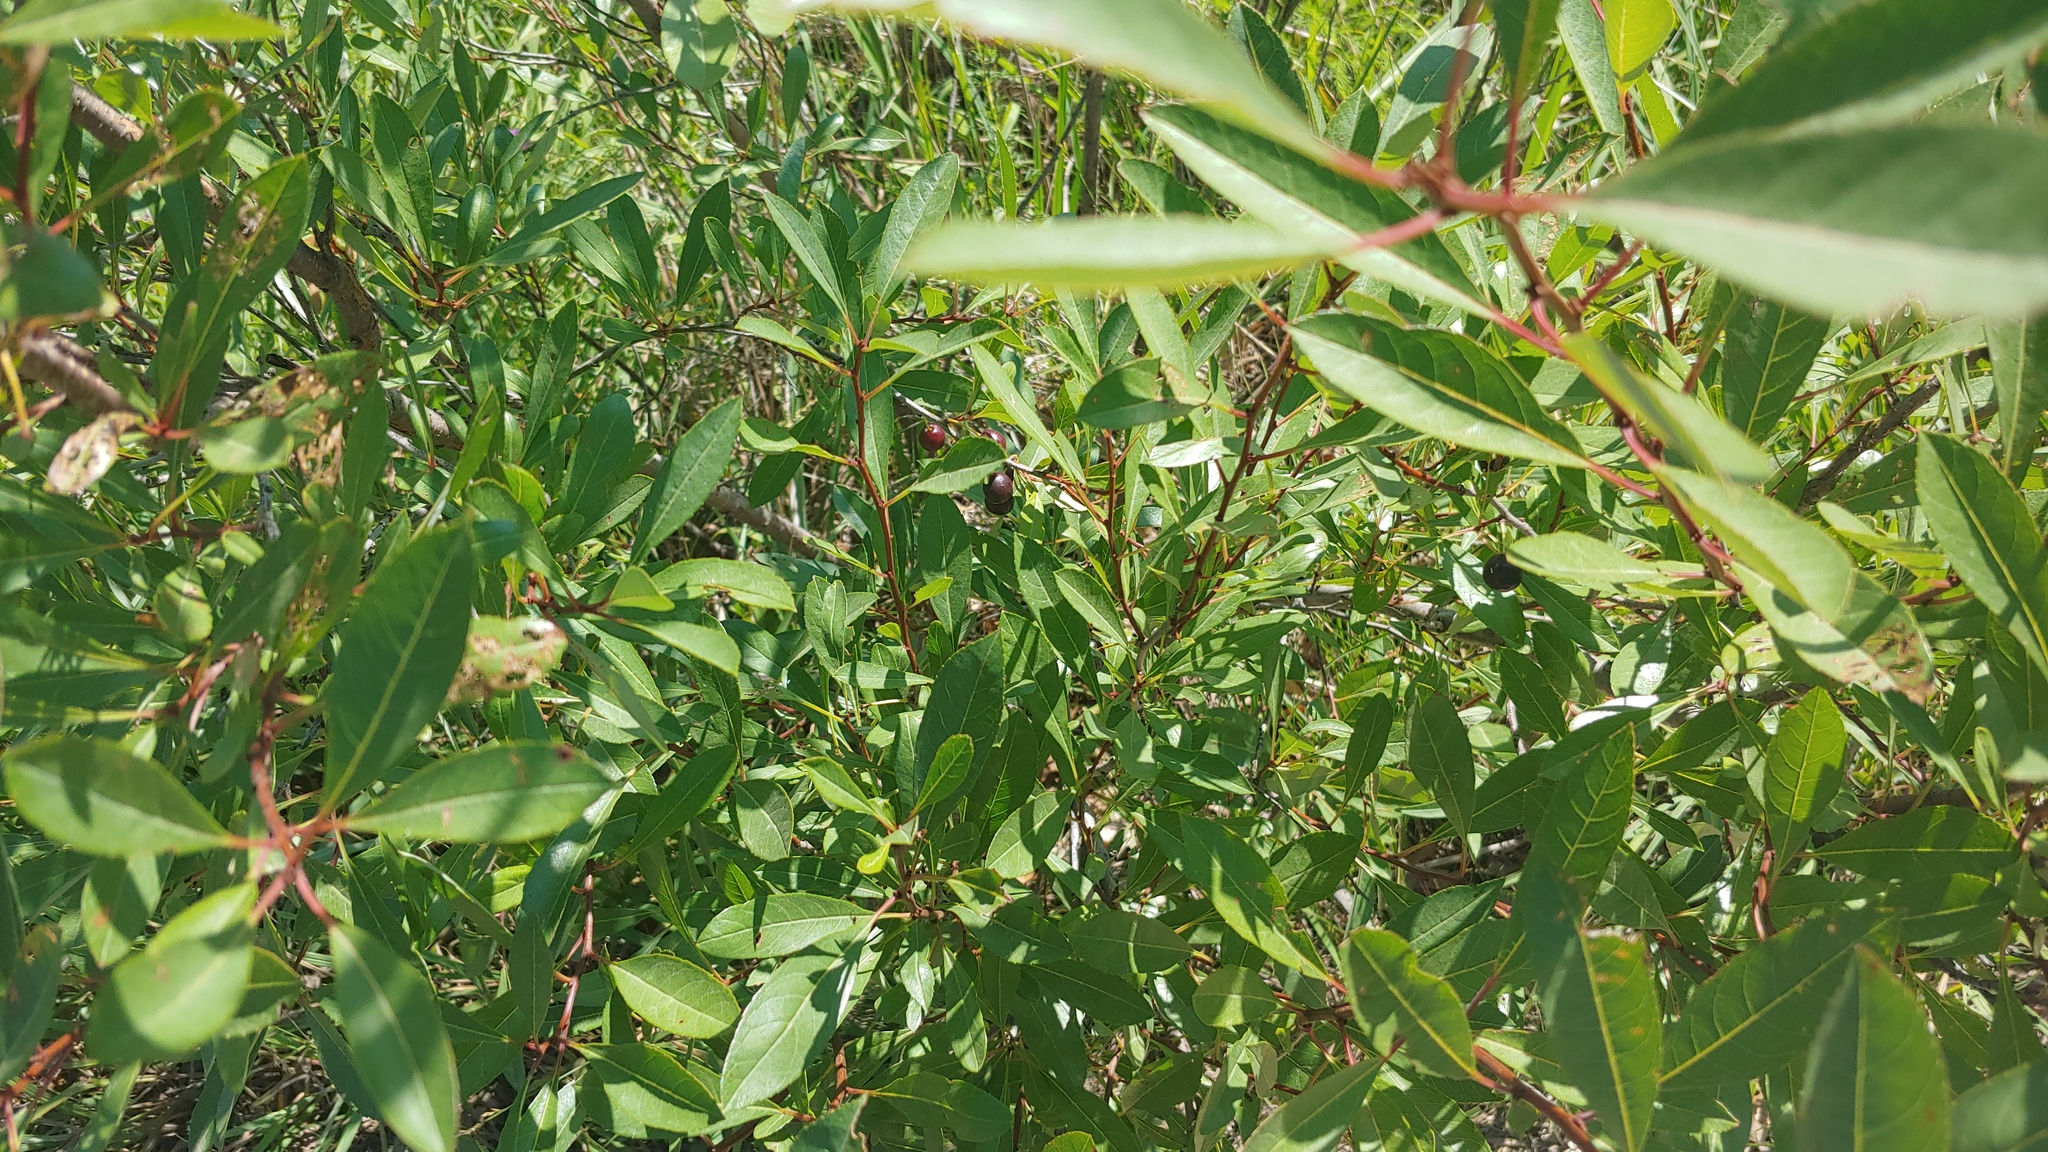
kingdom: Plantae
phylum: Tracheophyta
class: Magnoliopsida
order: Rosales
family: Rosaceae
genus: Prunus
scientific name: Prunus pumila
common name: Dwarf cherry
